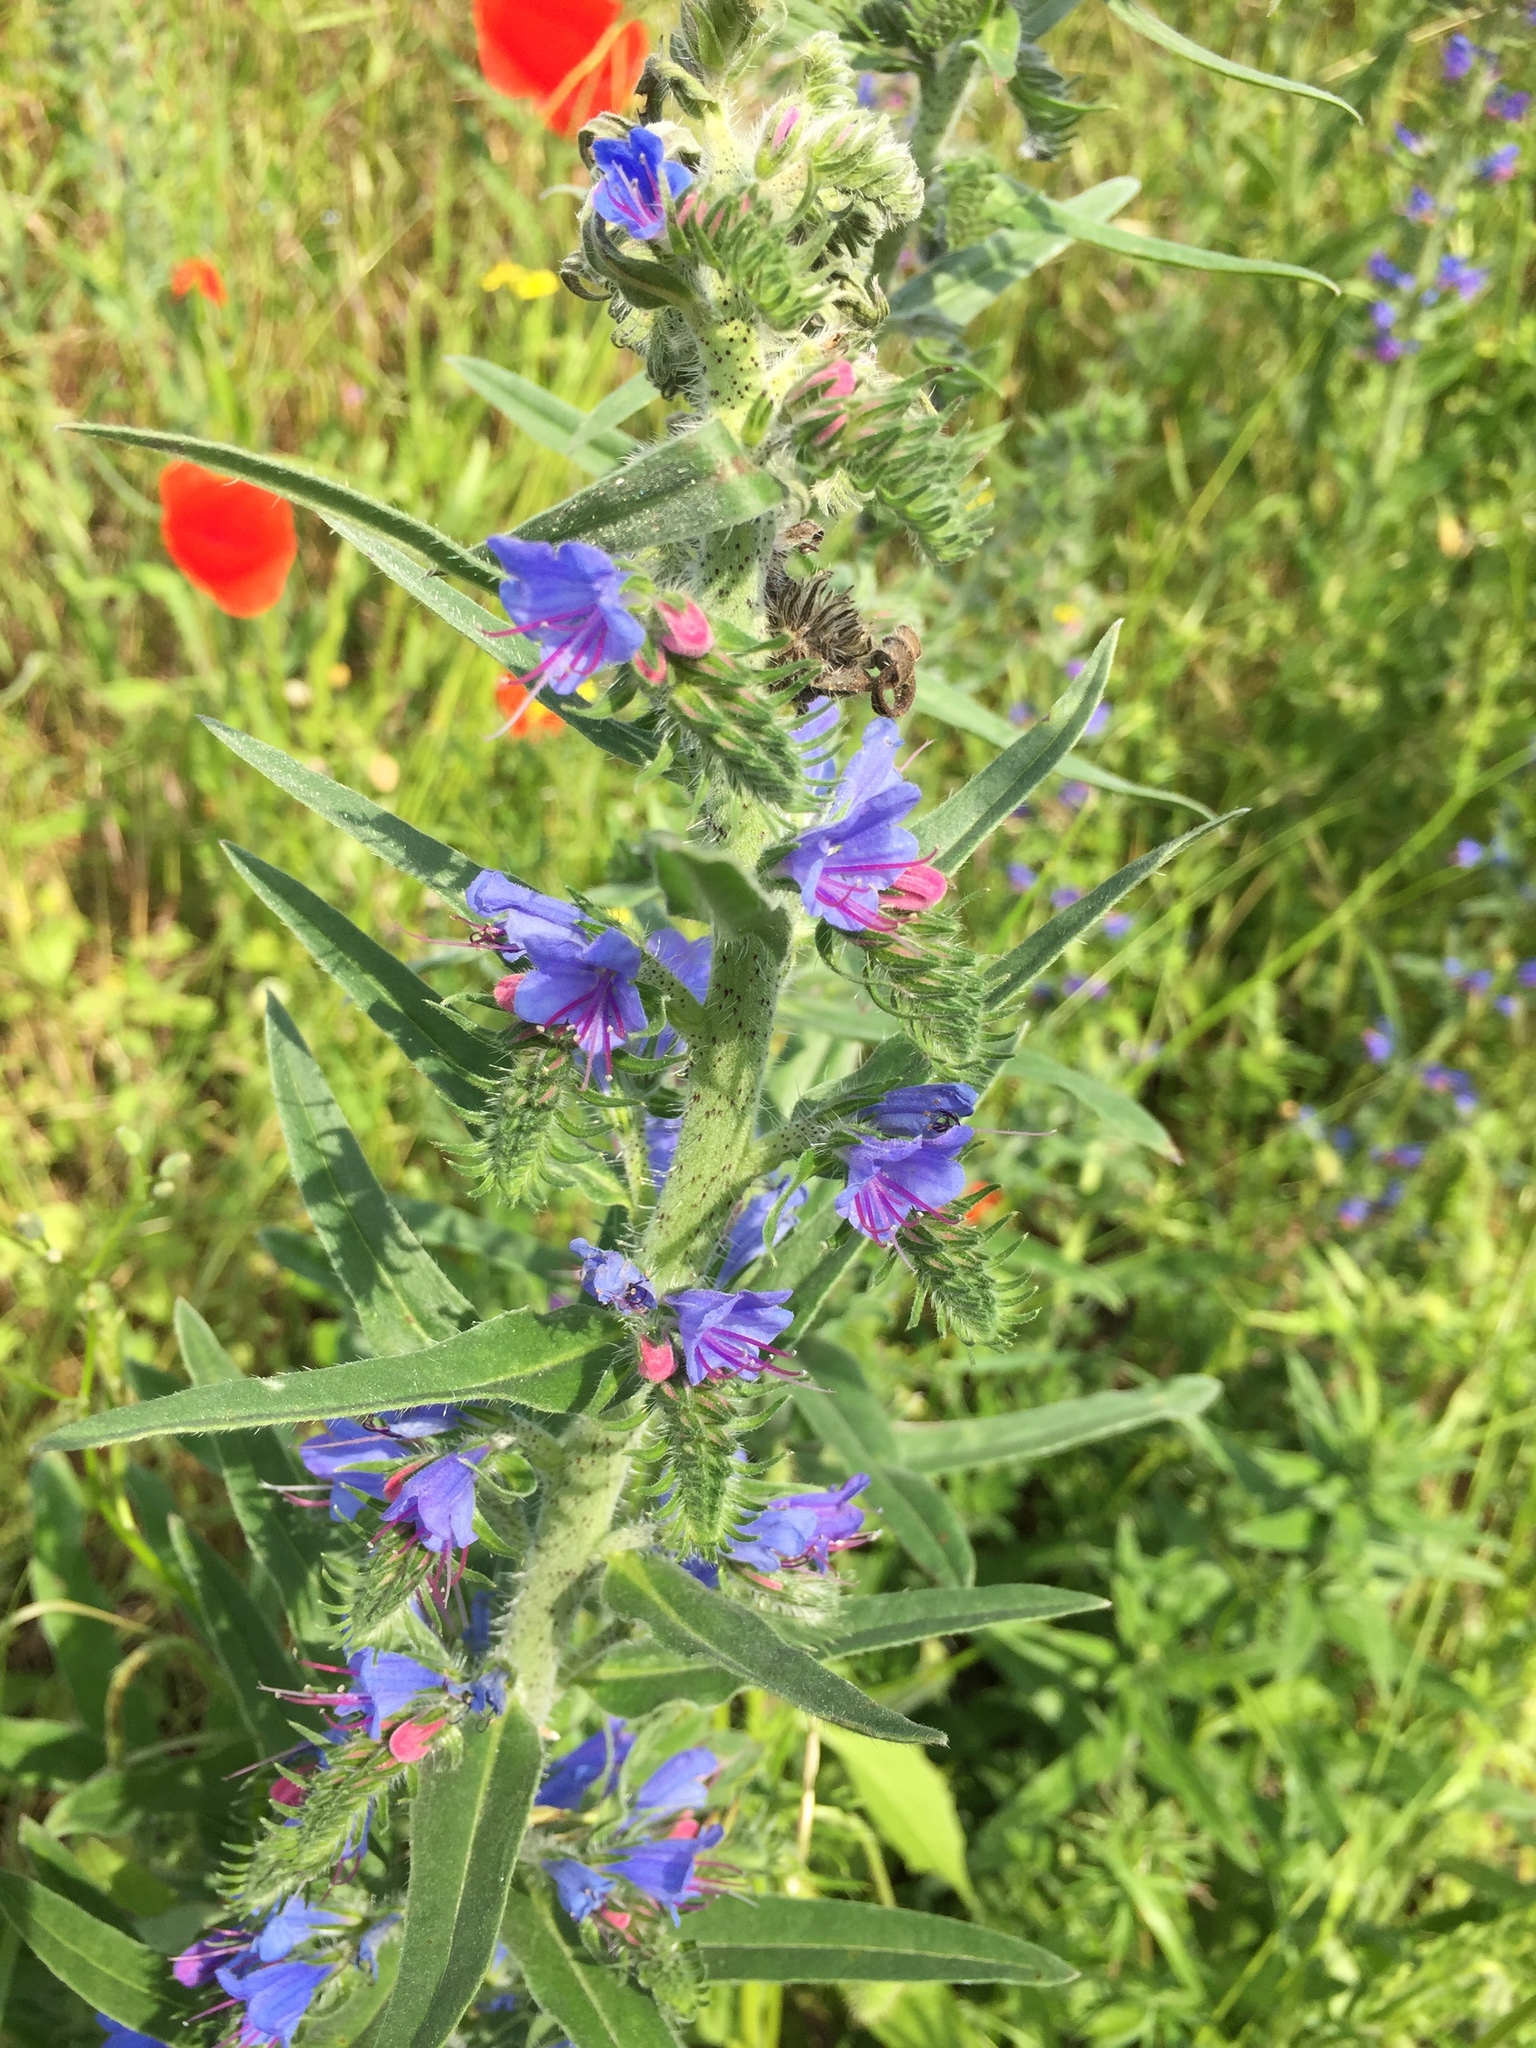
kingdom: Plantae
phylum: Tracheophyta
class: Magnoliopsida
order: Boraginales
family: Boraginaceae
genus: Echium
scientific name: Echium vulgare
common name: Common viper's bugloss
